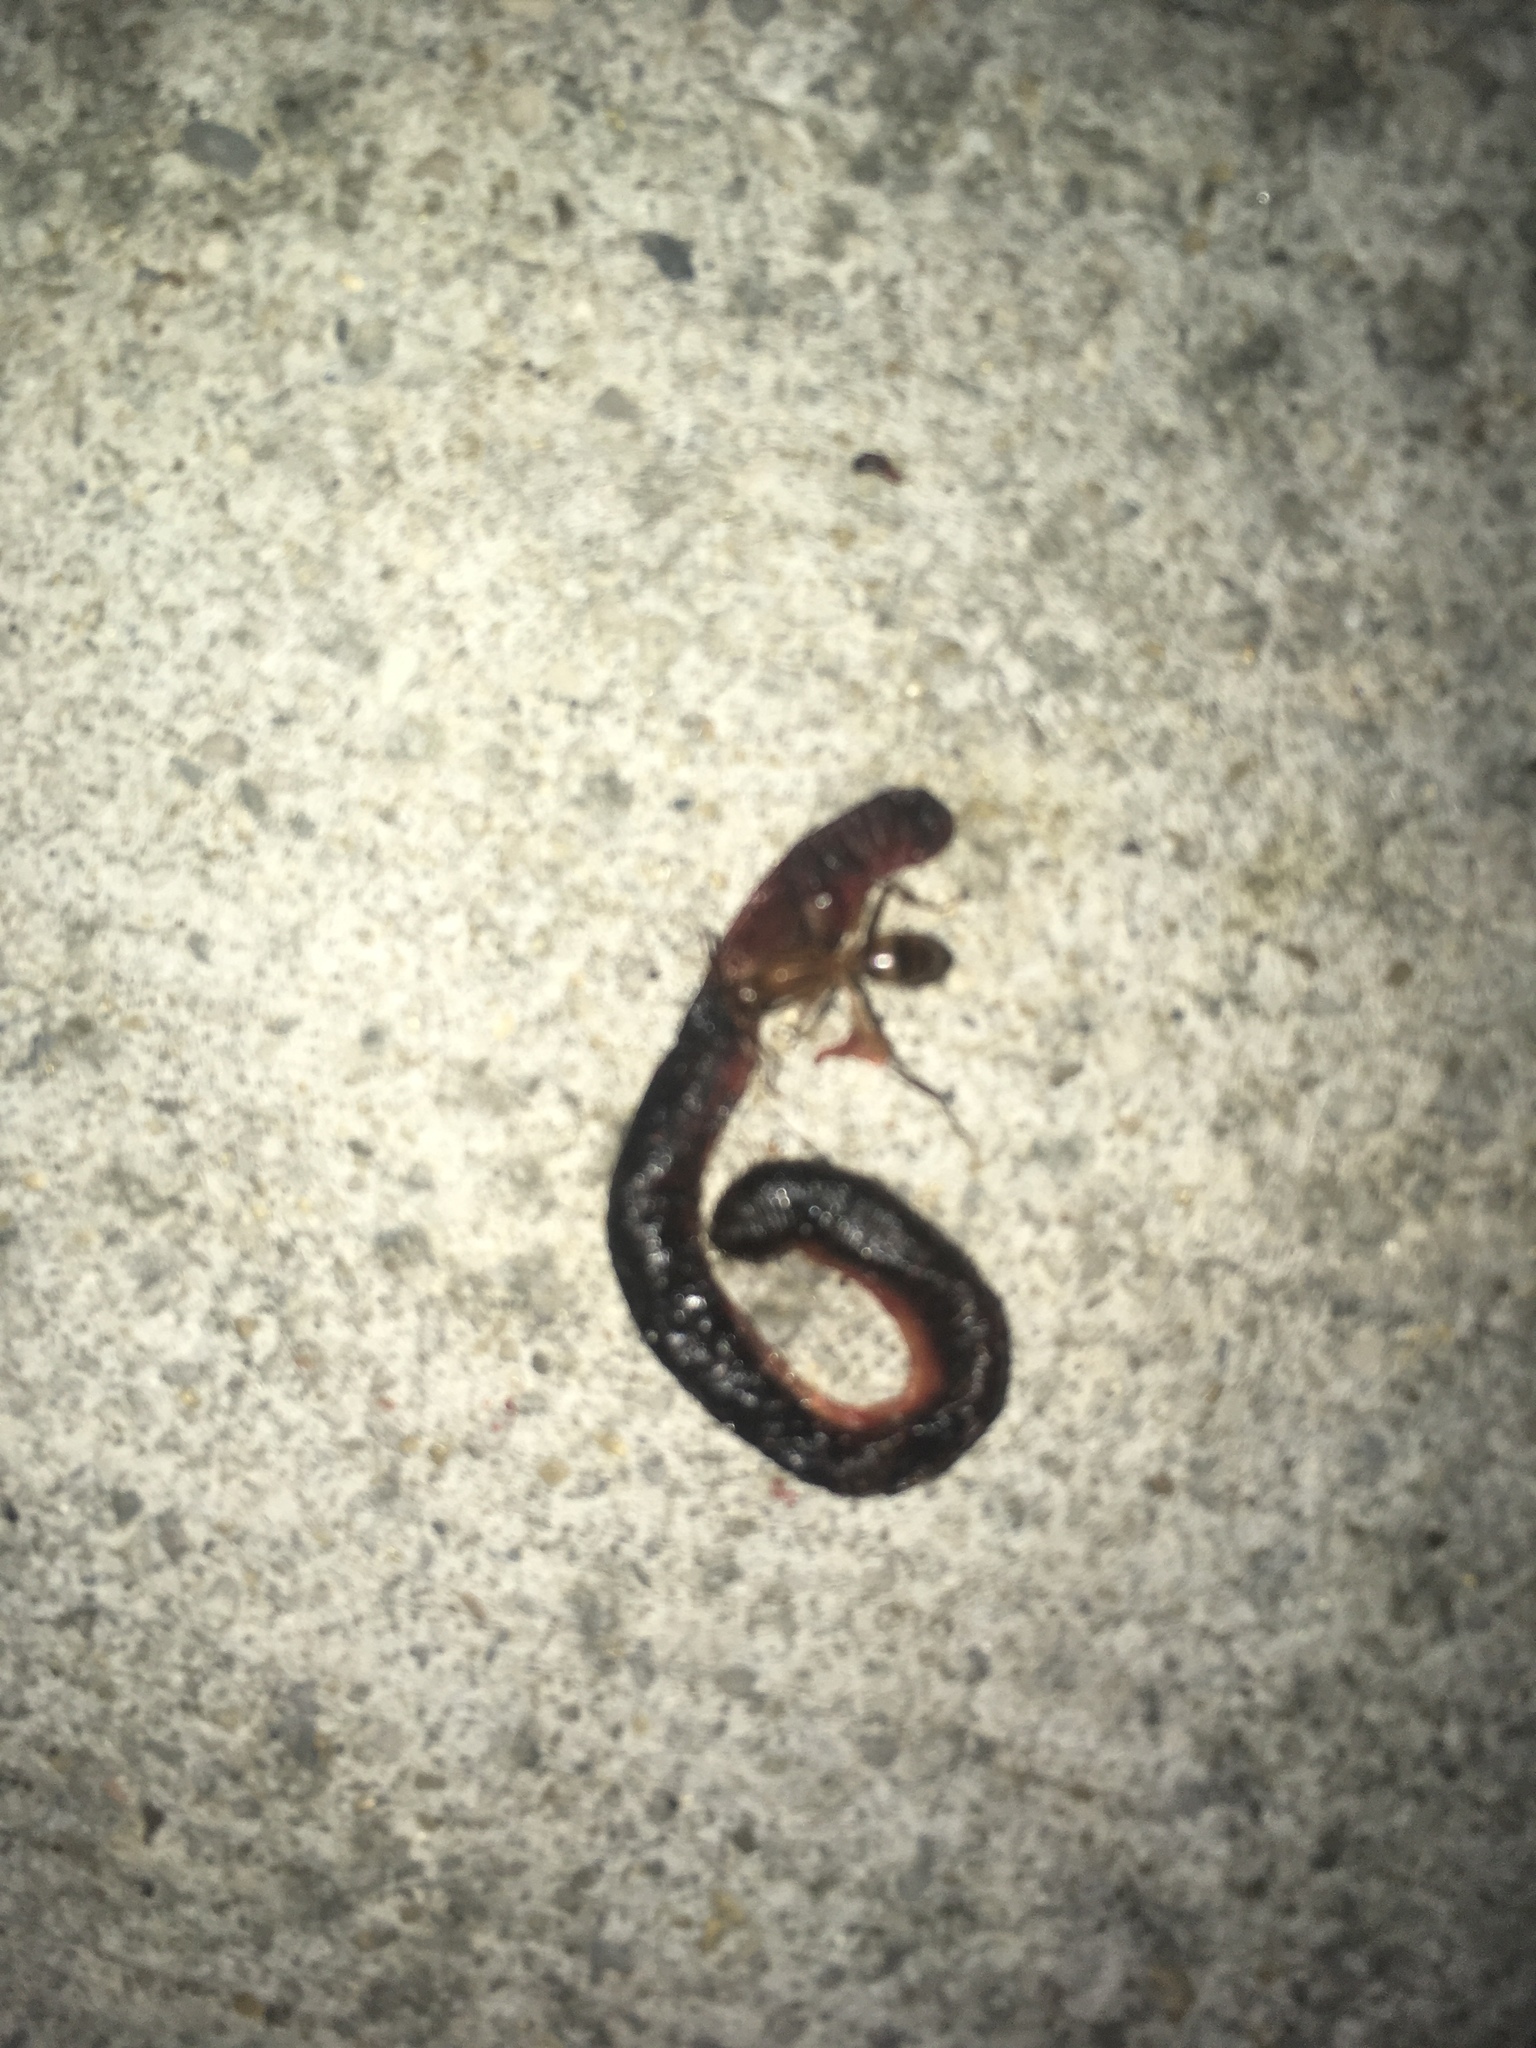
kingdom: Animalia
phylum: Arthropoda
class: Insecta
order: Hymenoptera
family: Formicidae
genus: Camponotus
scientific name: Camponotus
